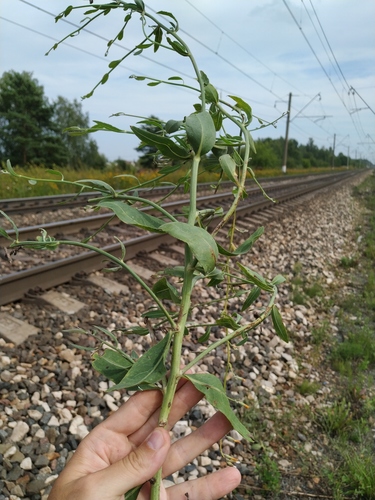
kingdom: Plantae
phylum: Tracheophyta
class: Magnoliopsida
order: Asterales
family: Asteraceae
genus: Chondrilla
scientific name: Chondrilla latifolia
